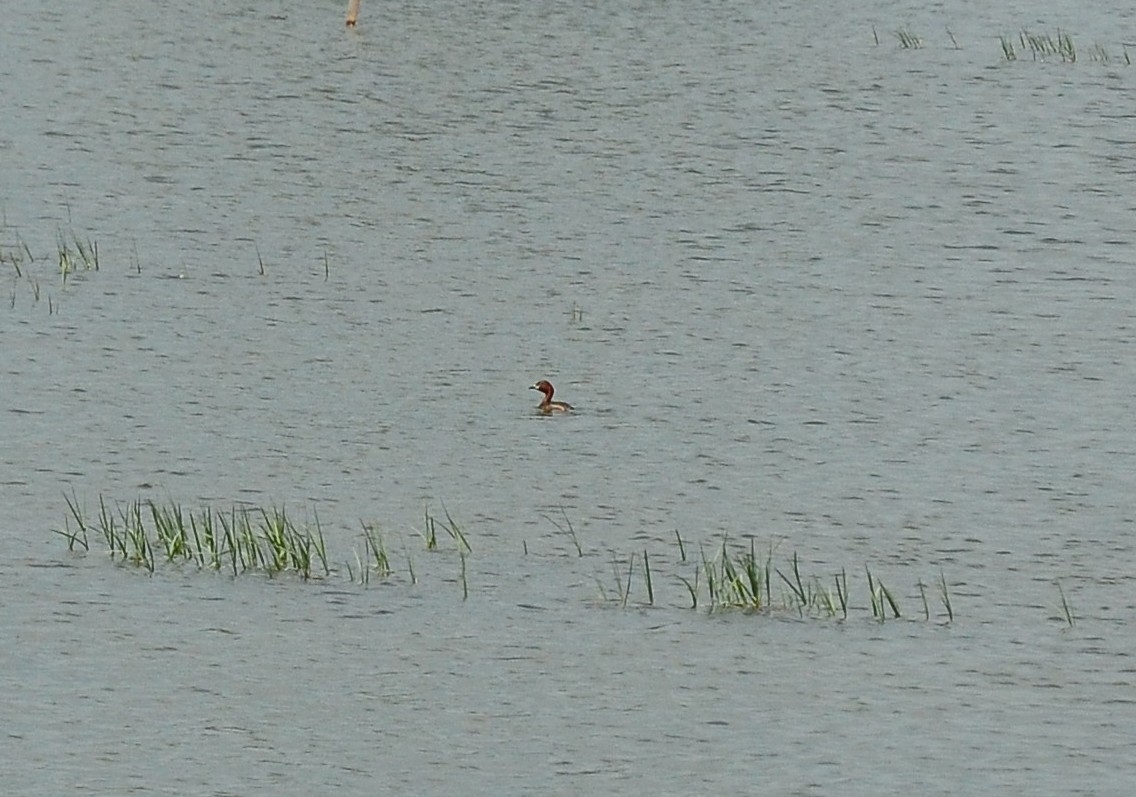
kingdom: Animalia
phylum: Chordata
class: Aves
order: Podicipediformes
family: Podicipedidae
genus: Tachybaptus
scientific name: Tachybaptus ruficollis
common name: Little grebe
